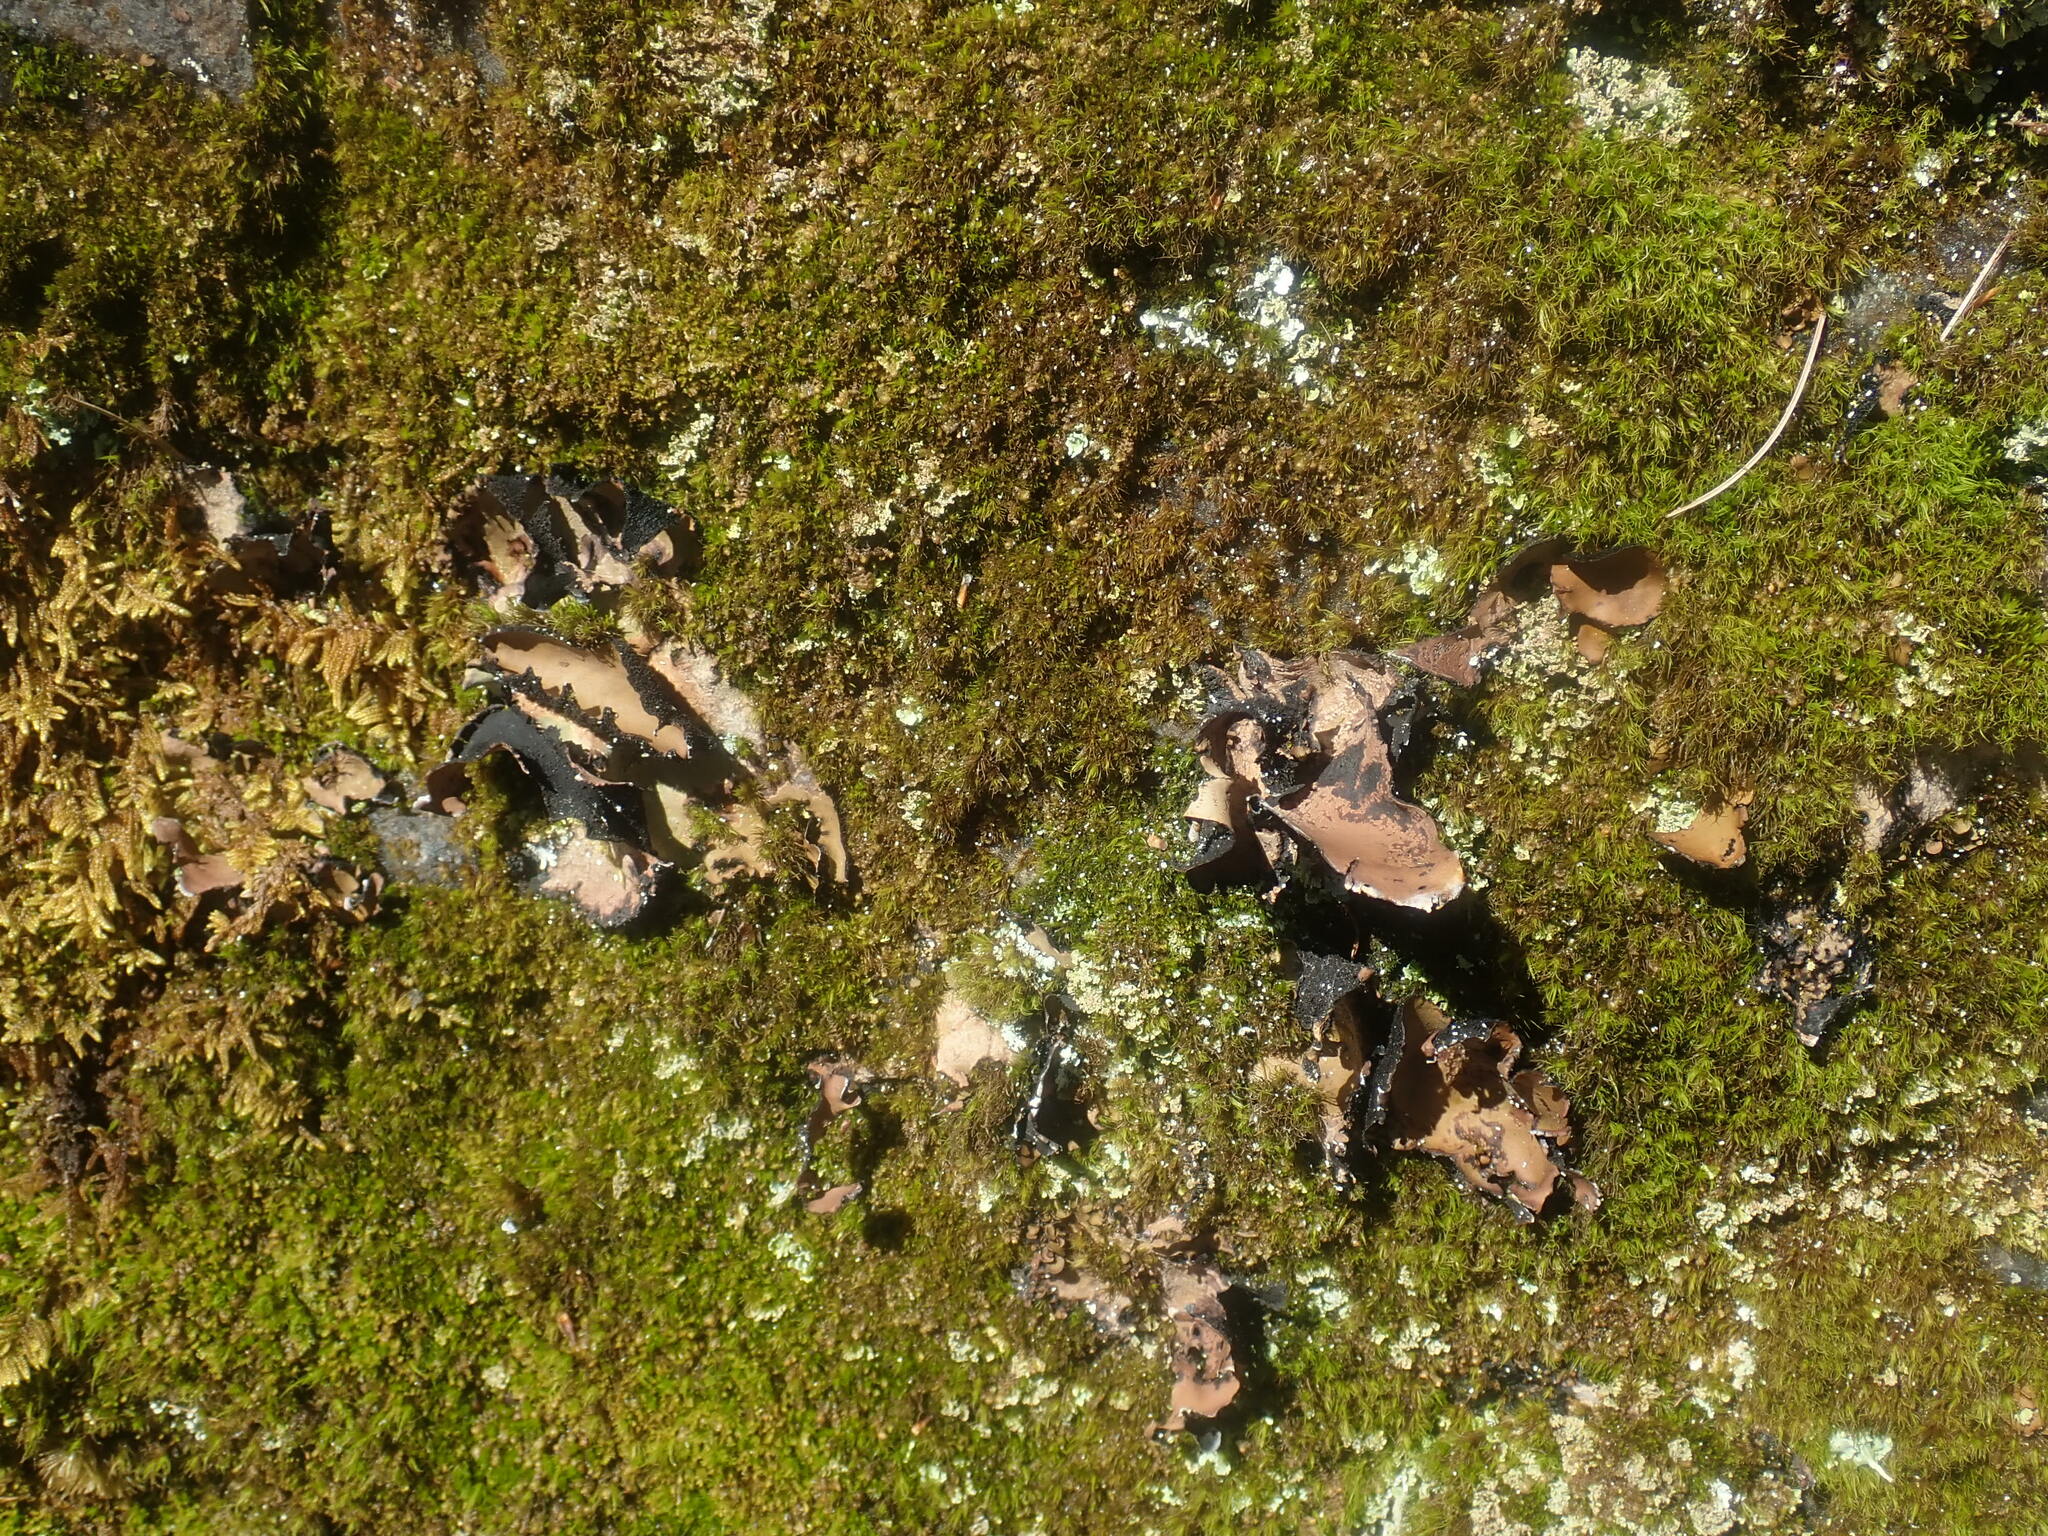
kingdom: Fungi
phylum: Ascomycota
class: Lecanoromycetes
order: Umbilicariales
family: Umbilicariaceae
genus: Umbilicaria
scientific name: Umbilicaria mammulata
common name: Smooth rock tripe
